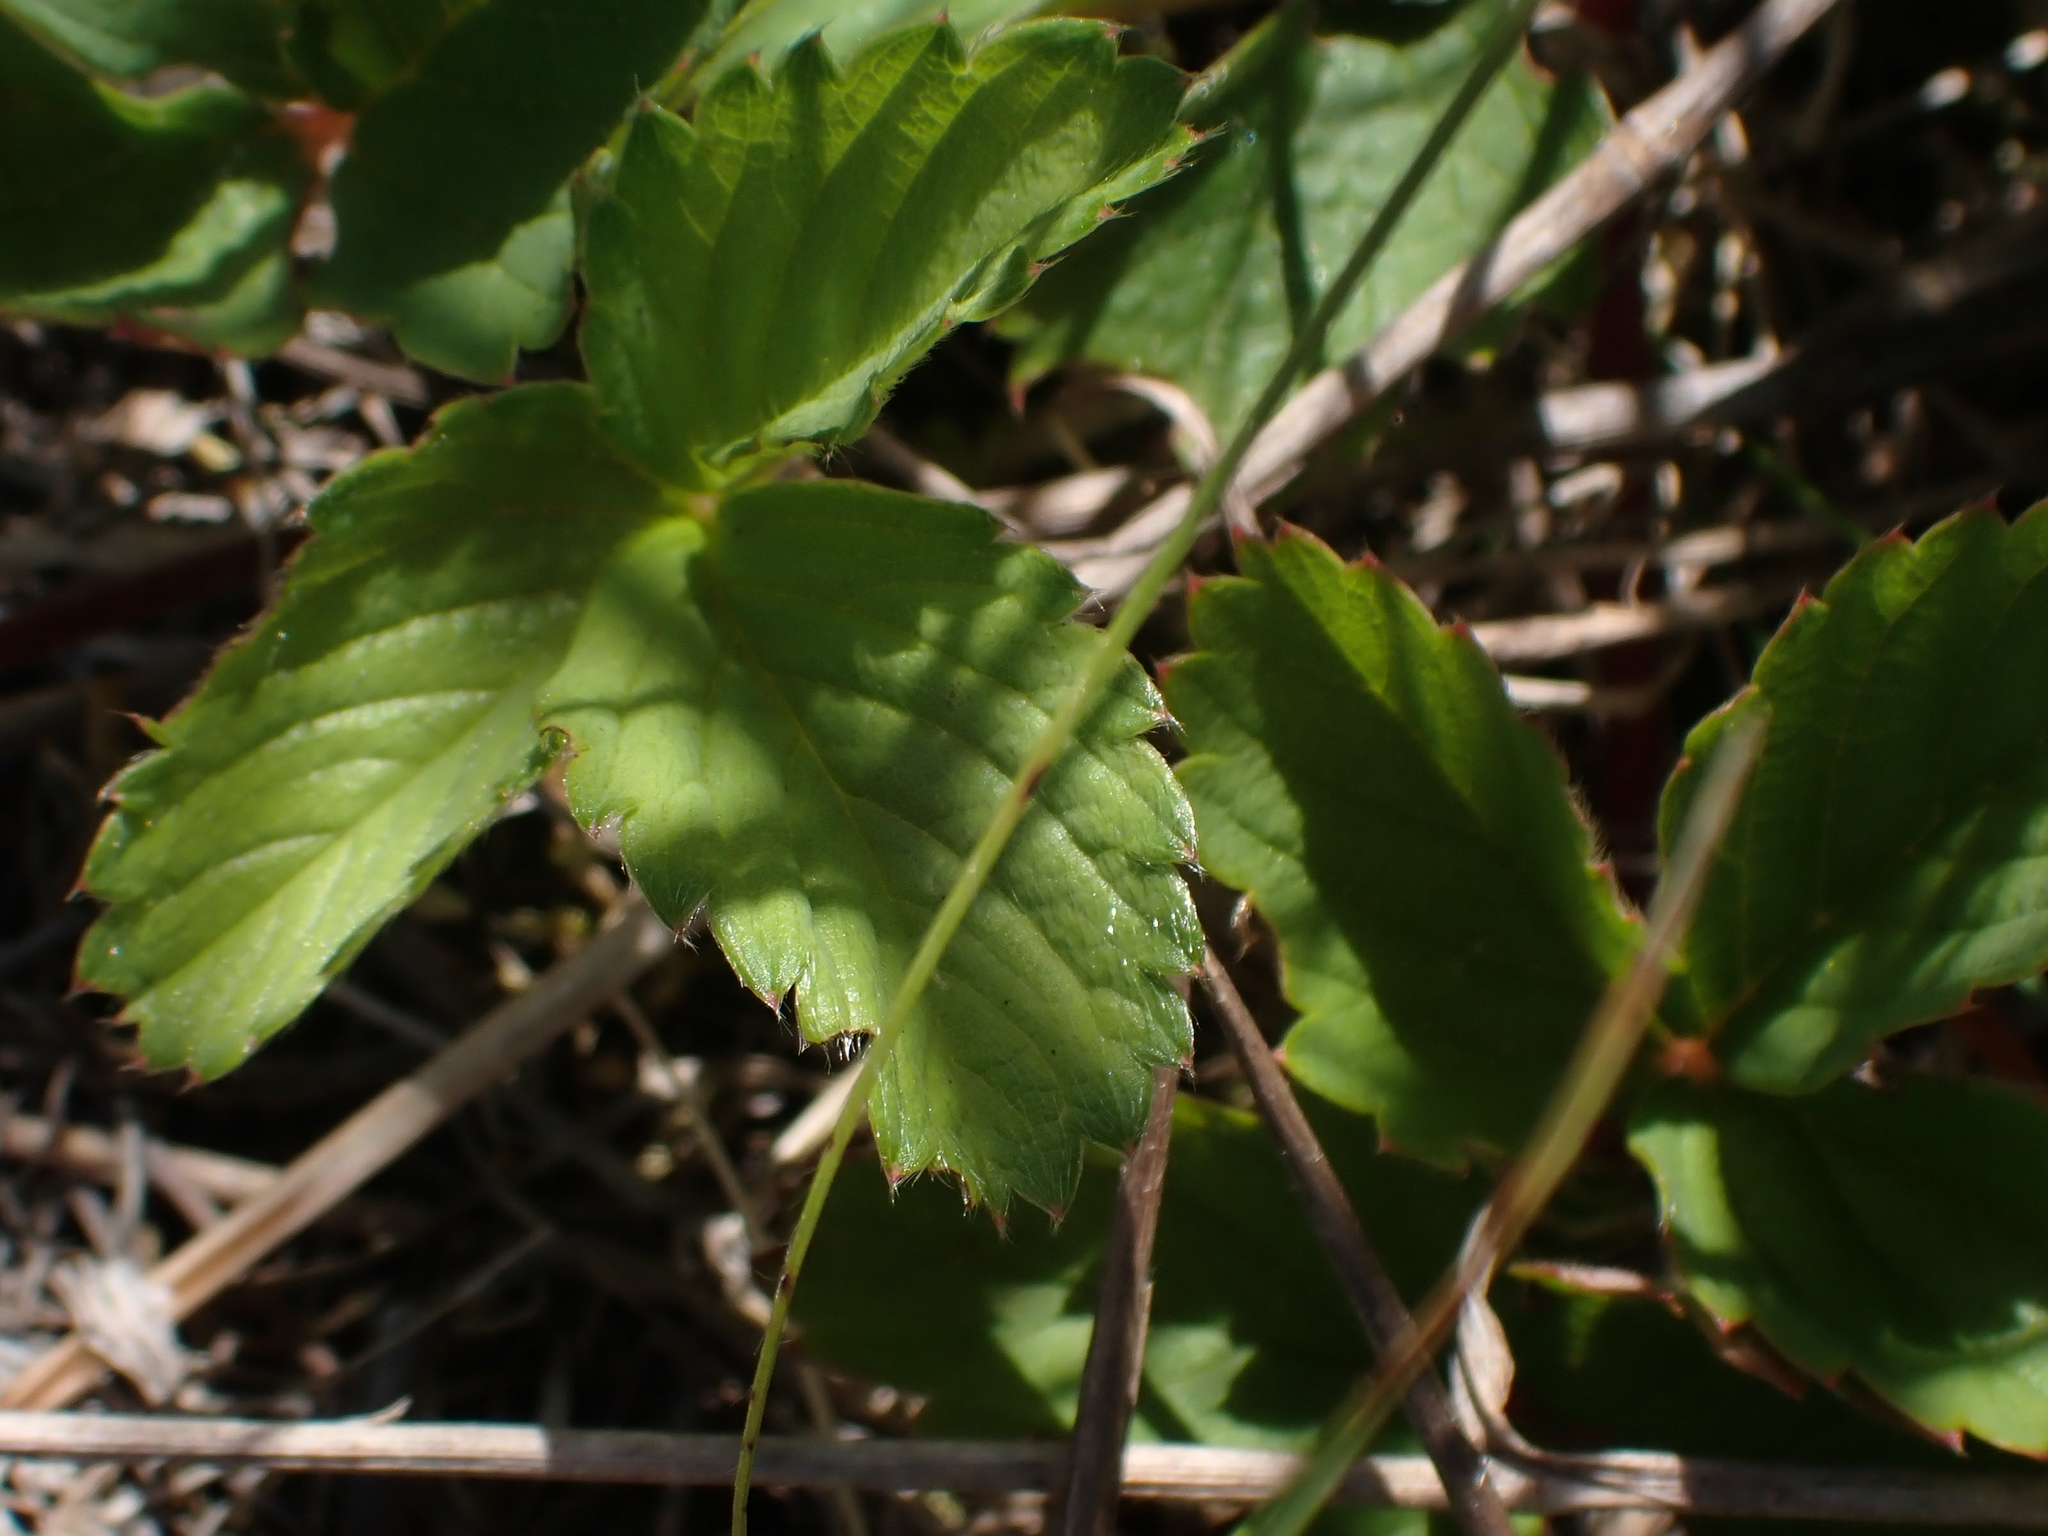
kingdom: Plantae
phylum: Tracheophyta
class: Magnoliopsida
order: Rosales
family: Rosaceae
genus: Fragaria
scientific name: Fragaria virginiana
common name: Thickleaved wild strawberry
